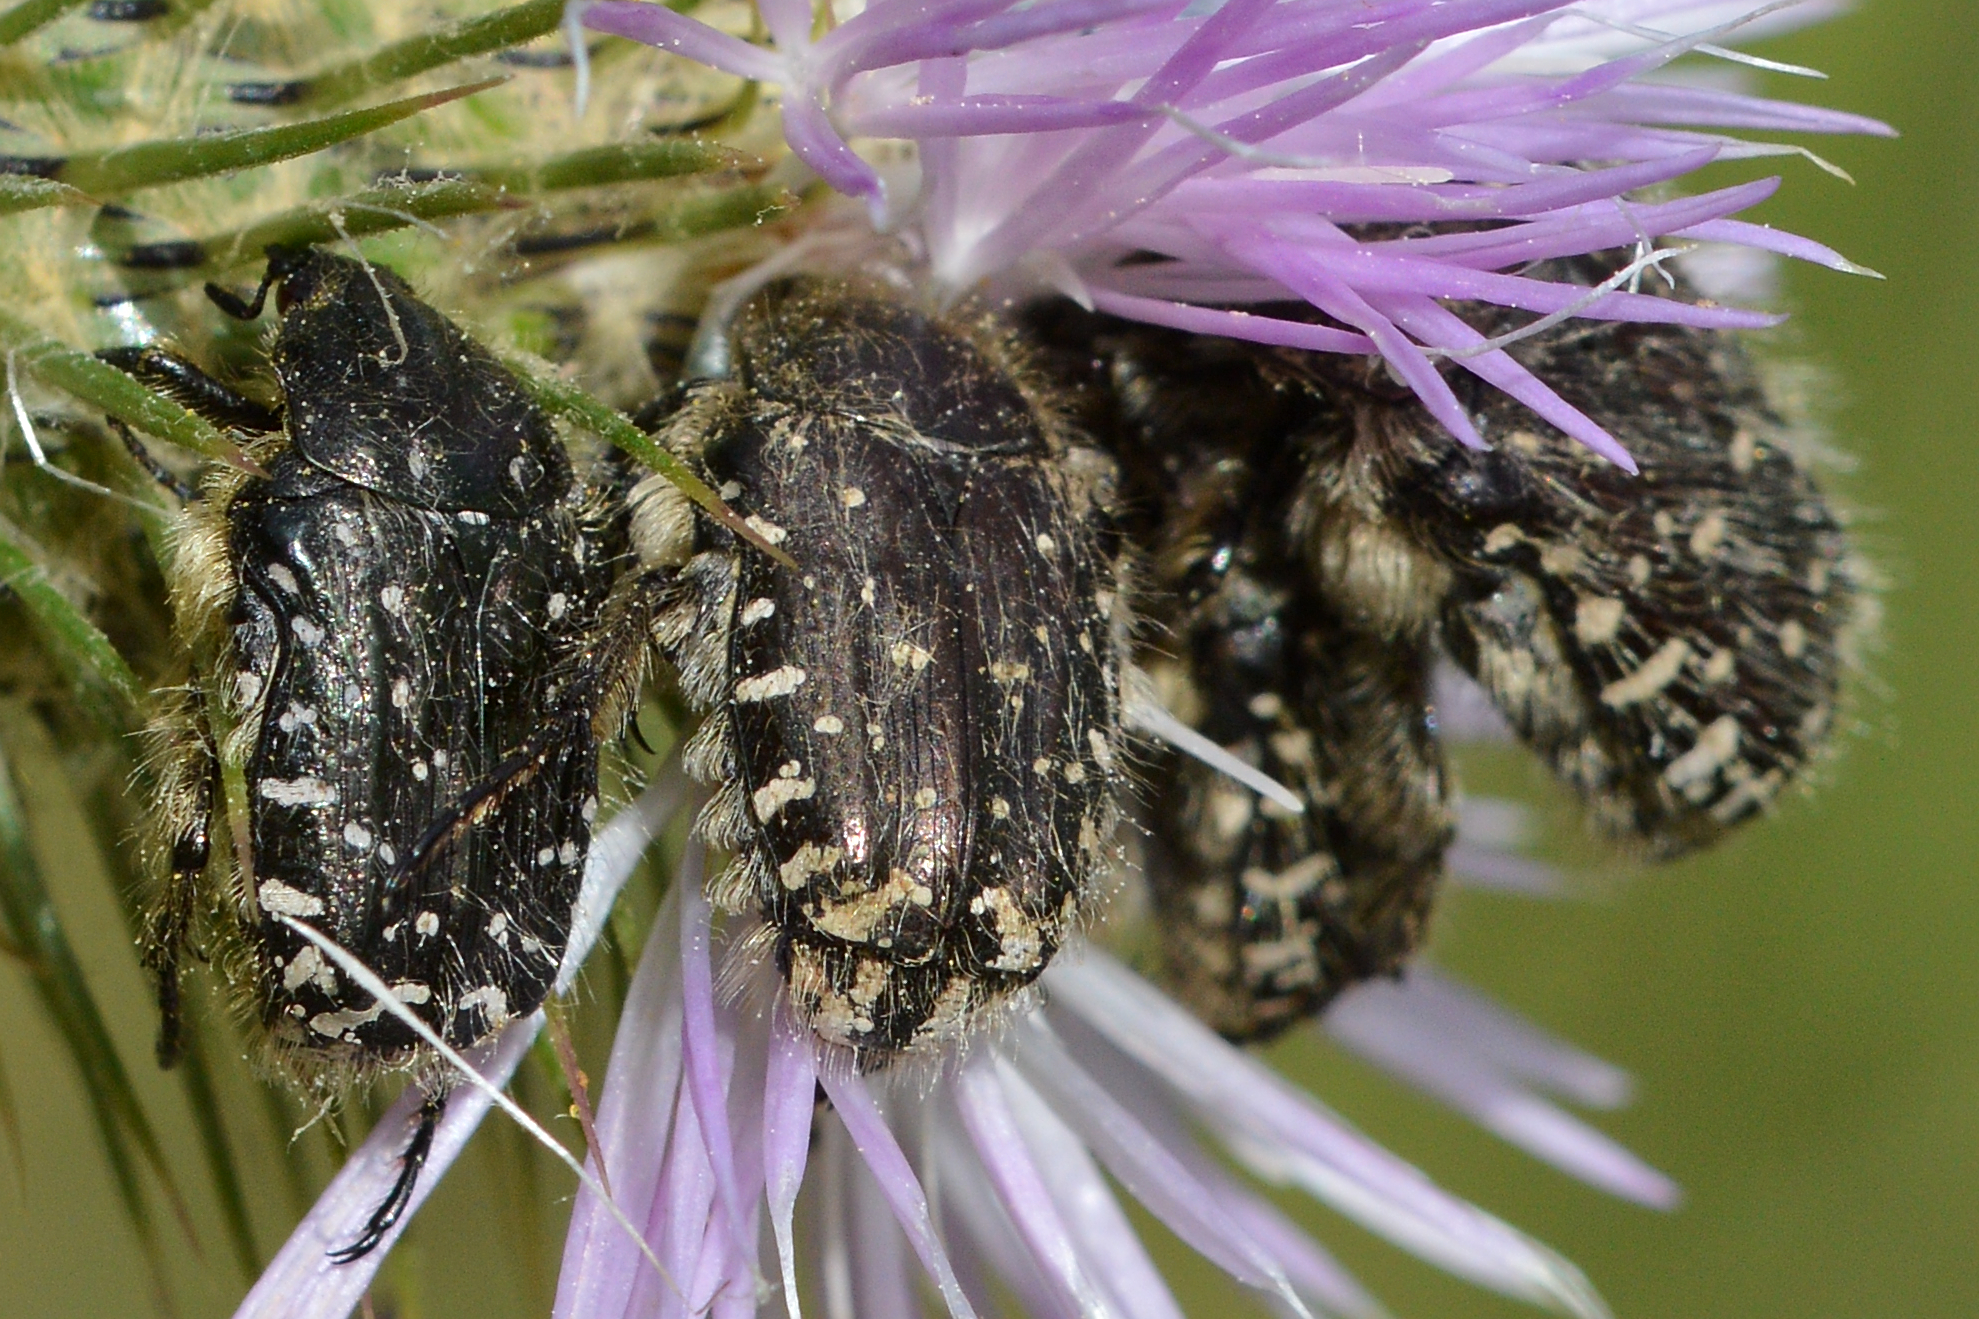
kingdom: Animalia
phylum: Arthropoda
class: Insecta
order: Coleoptera
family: Scarabaeidae
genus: Oxythyrea
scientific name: Oxythyrea funesta
